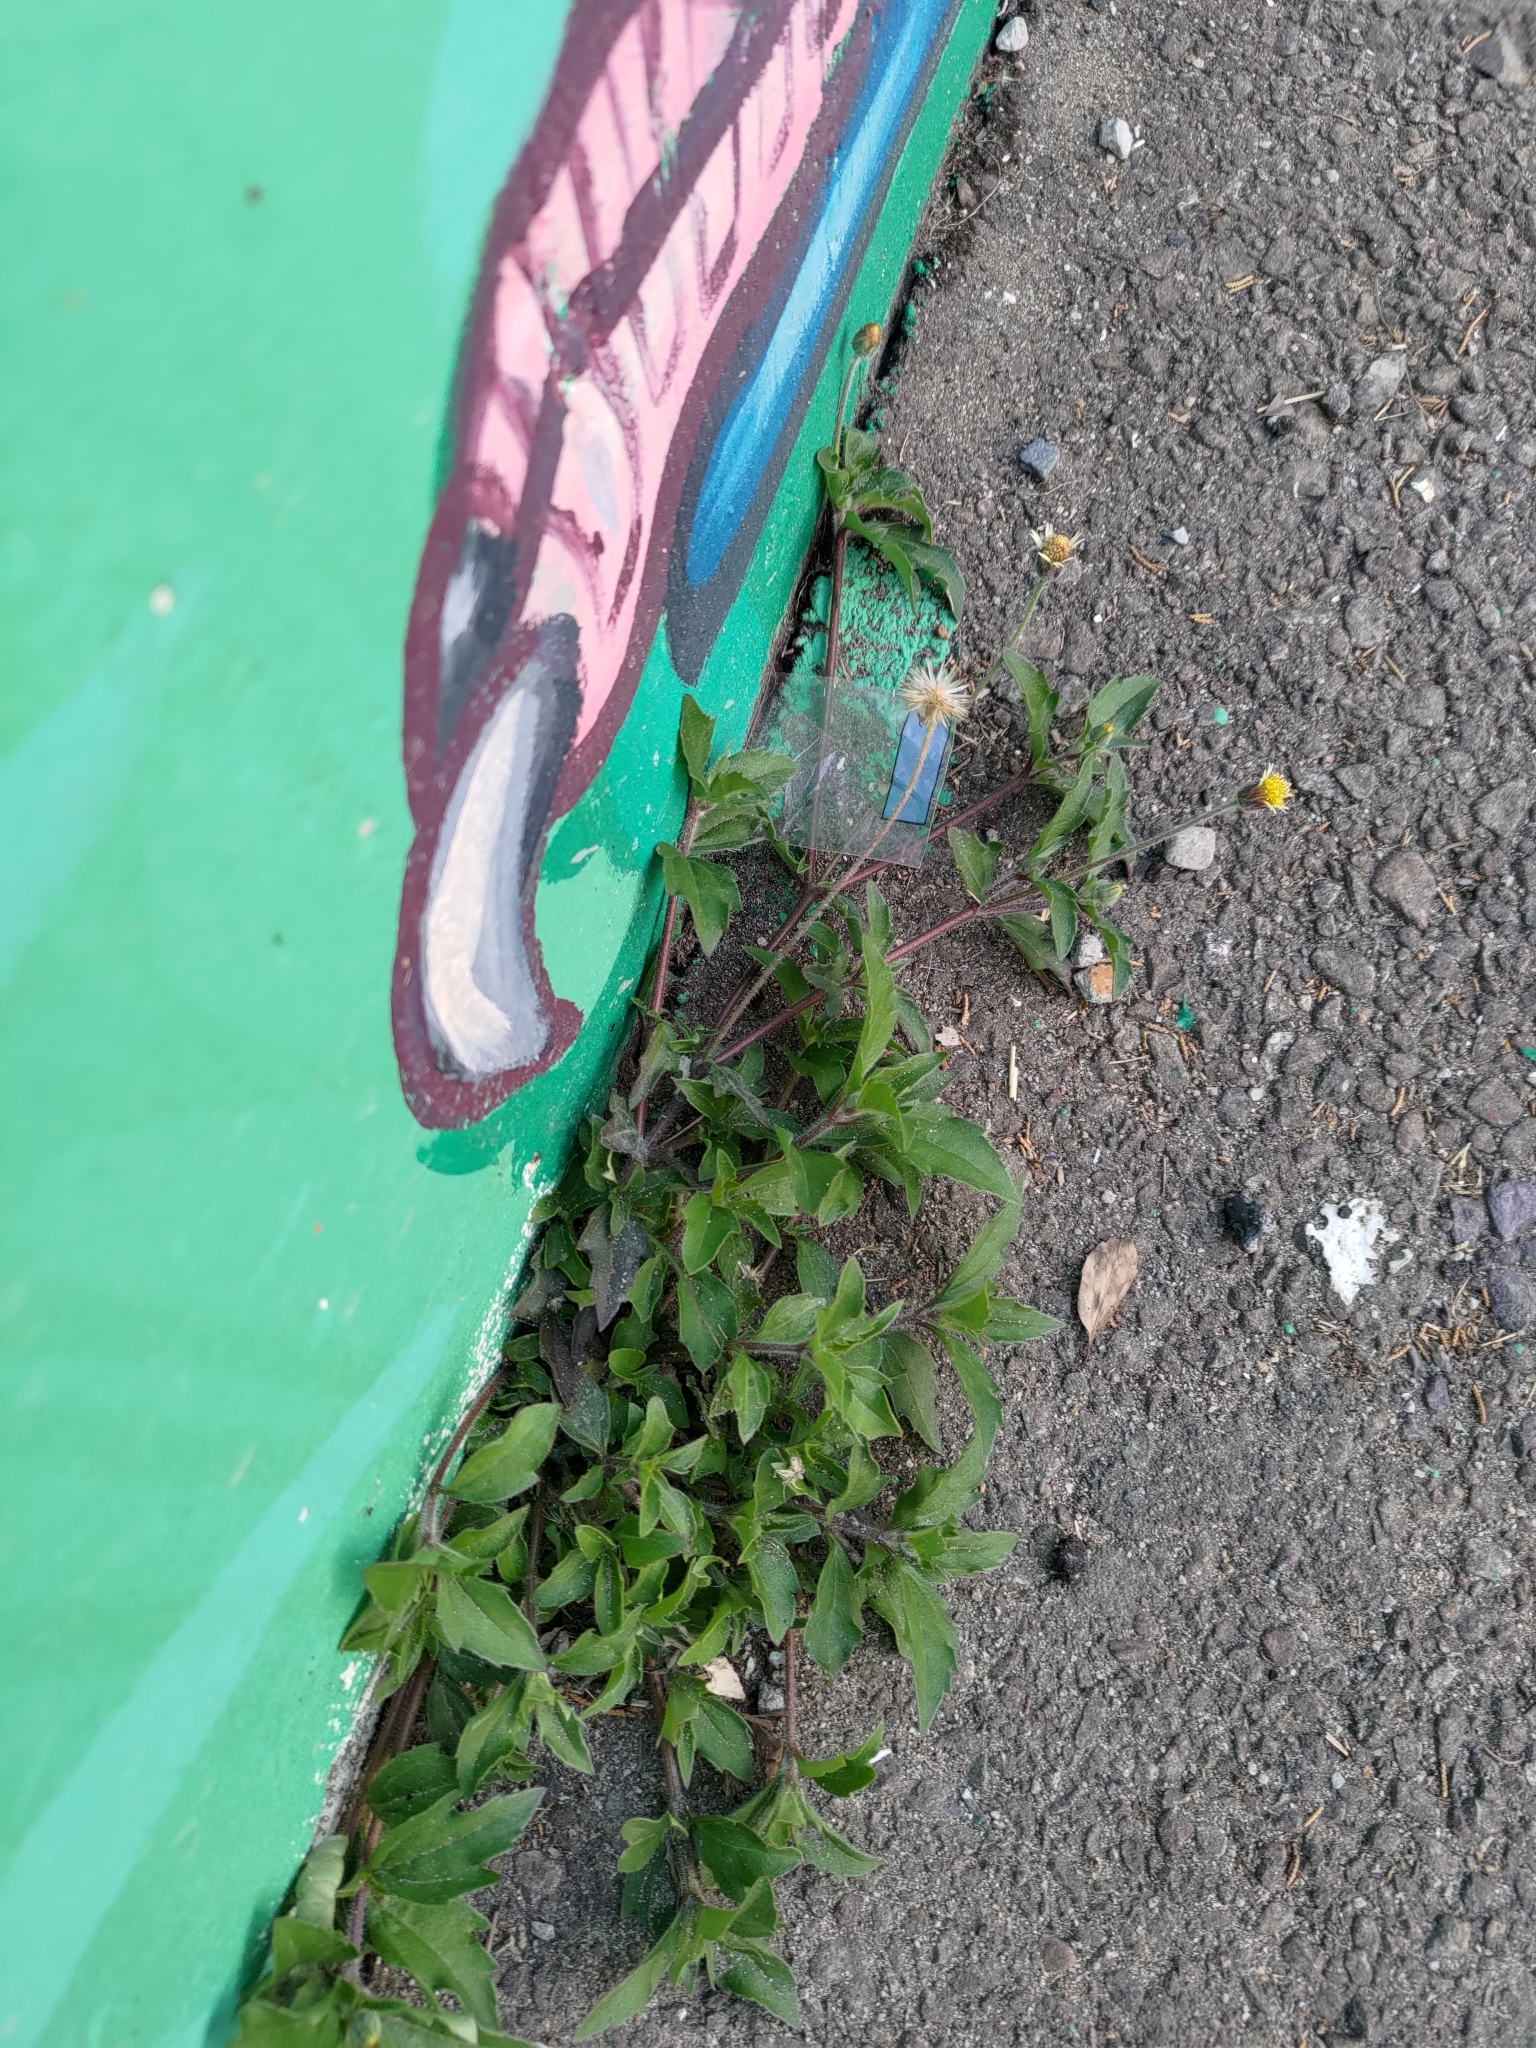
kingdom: Plantae
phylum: Tracheophyta
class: Magnoliopsida
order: Asterales
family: Asteraceae
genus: Tridax
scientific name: Tridax procumbens
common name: Coatbuttons
